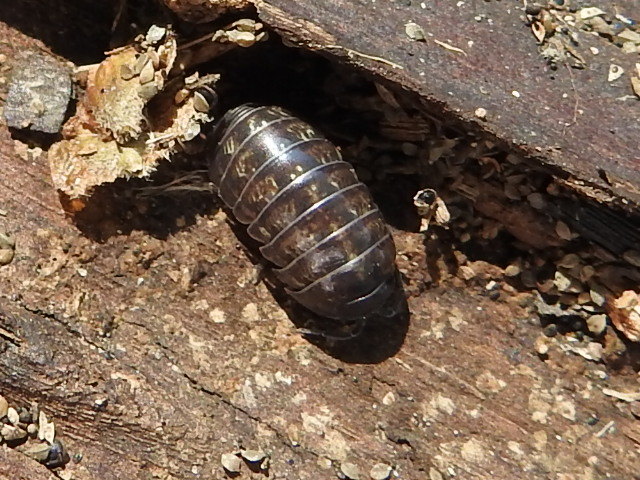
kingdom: Animalia
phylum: Arthropoda
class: Malacostraca
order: Isopoda
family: Armadillidiidae
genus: Armadillidium
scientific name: Armadillidium vulgare
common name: Common pill woodlouse
